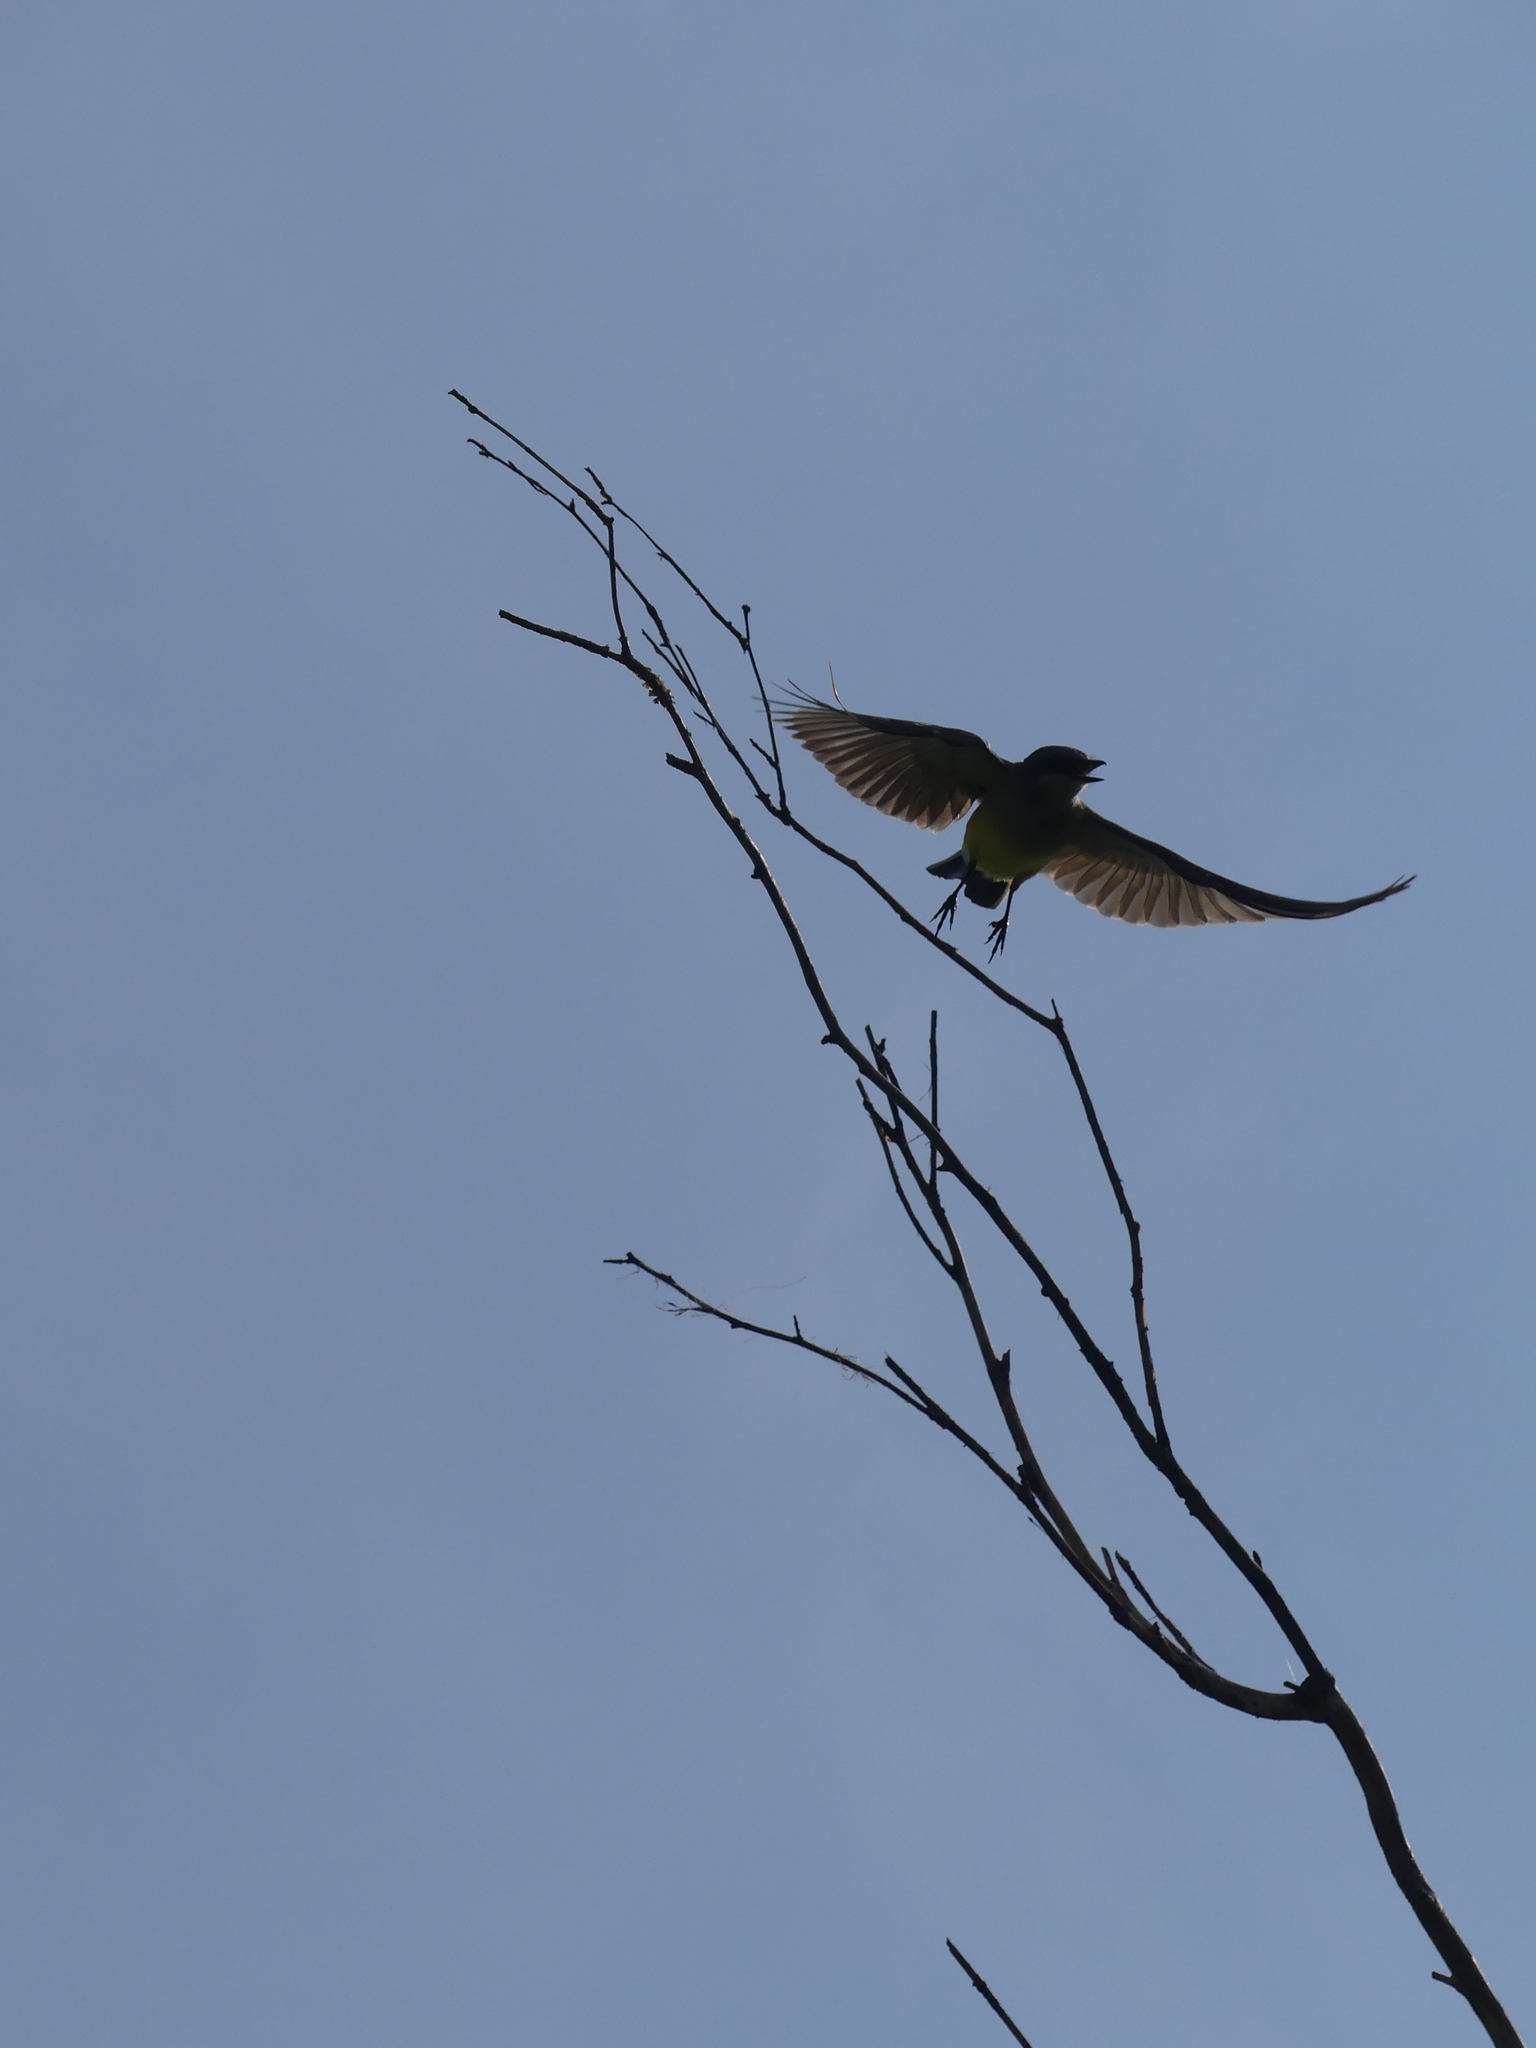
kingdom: Animalia
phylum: Chordata
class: Aves
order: Passeriformes
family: Tyrannidae
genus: Tyrannus
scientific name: Tyrannus verticalis
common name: Western kingbird
